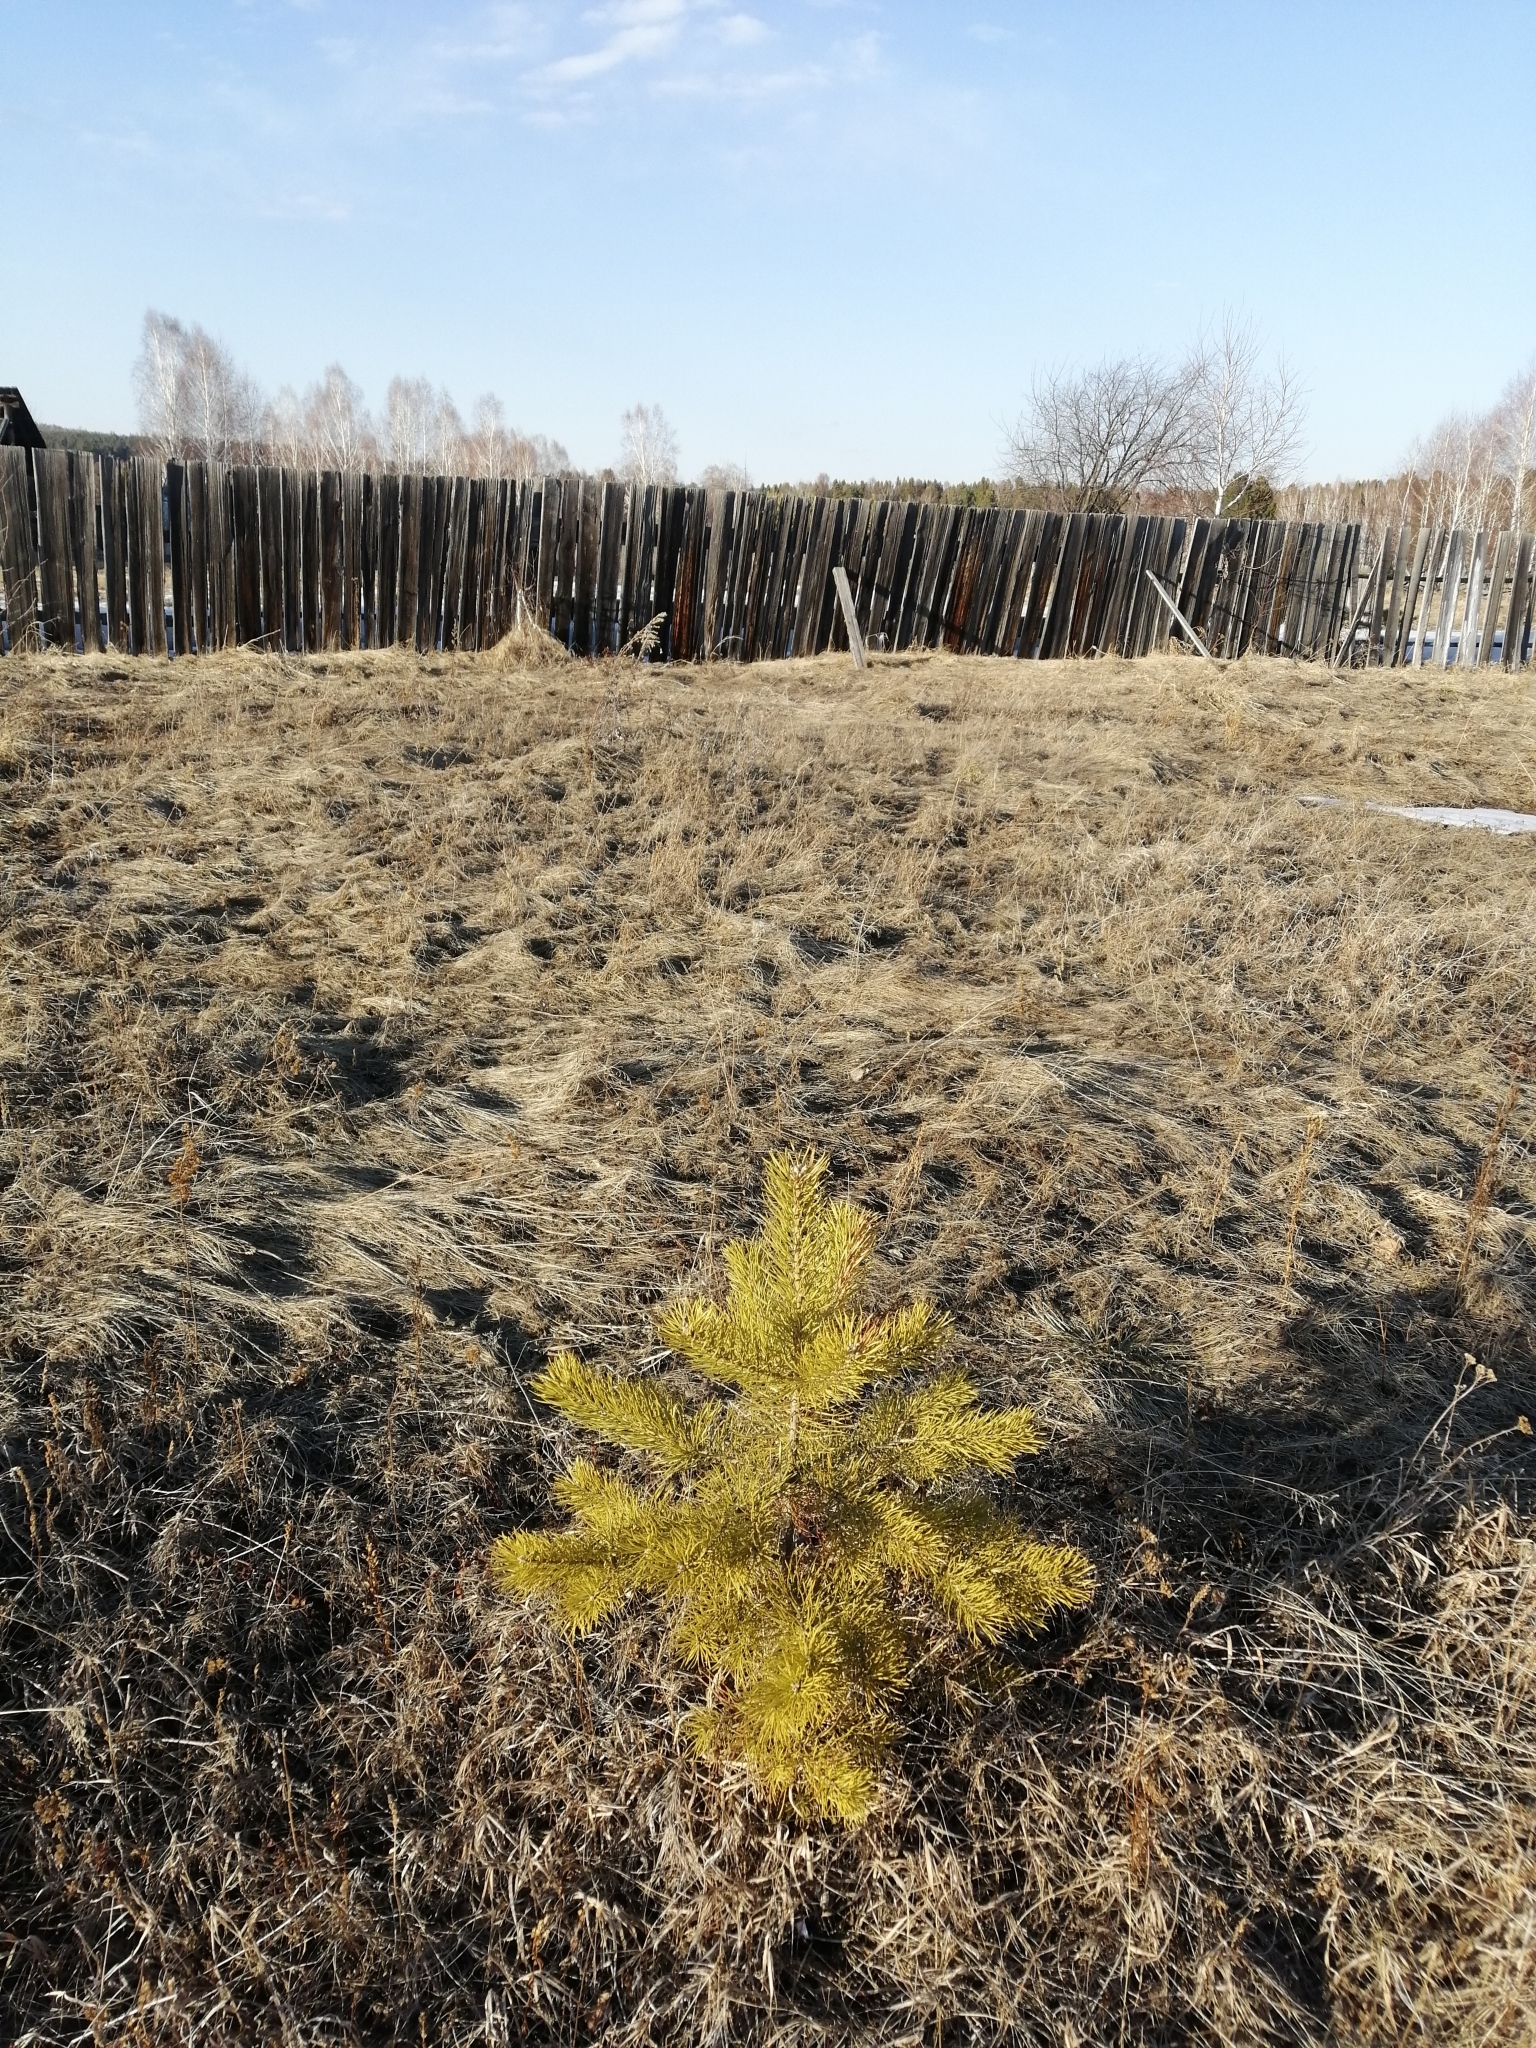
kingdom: Plantae
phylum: Tracheophyta
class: Pinopsida
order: Pinales
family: Pinaceae
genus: Pinus
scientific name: Pinus sylvestris
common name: Scots pine
